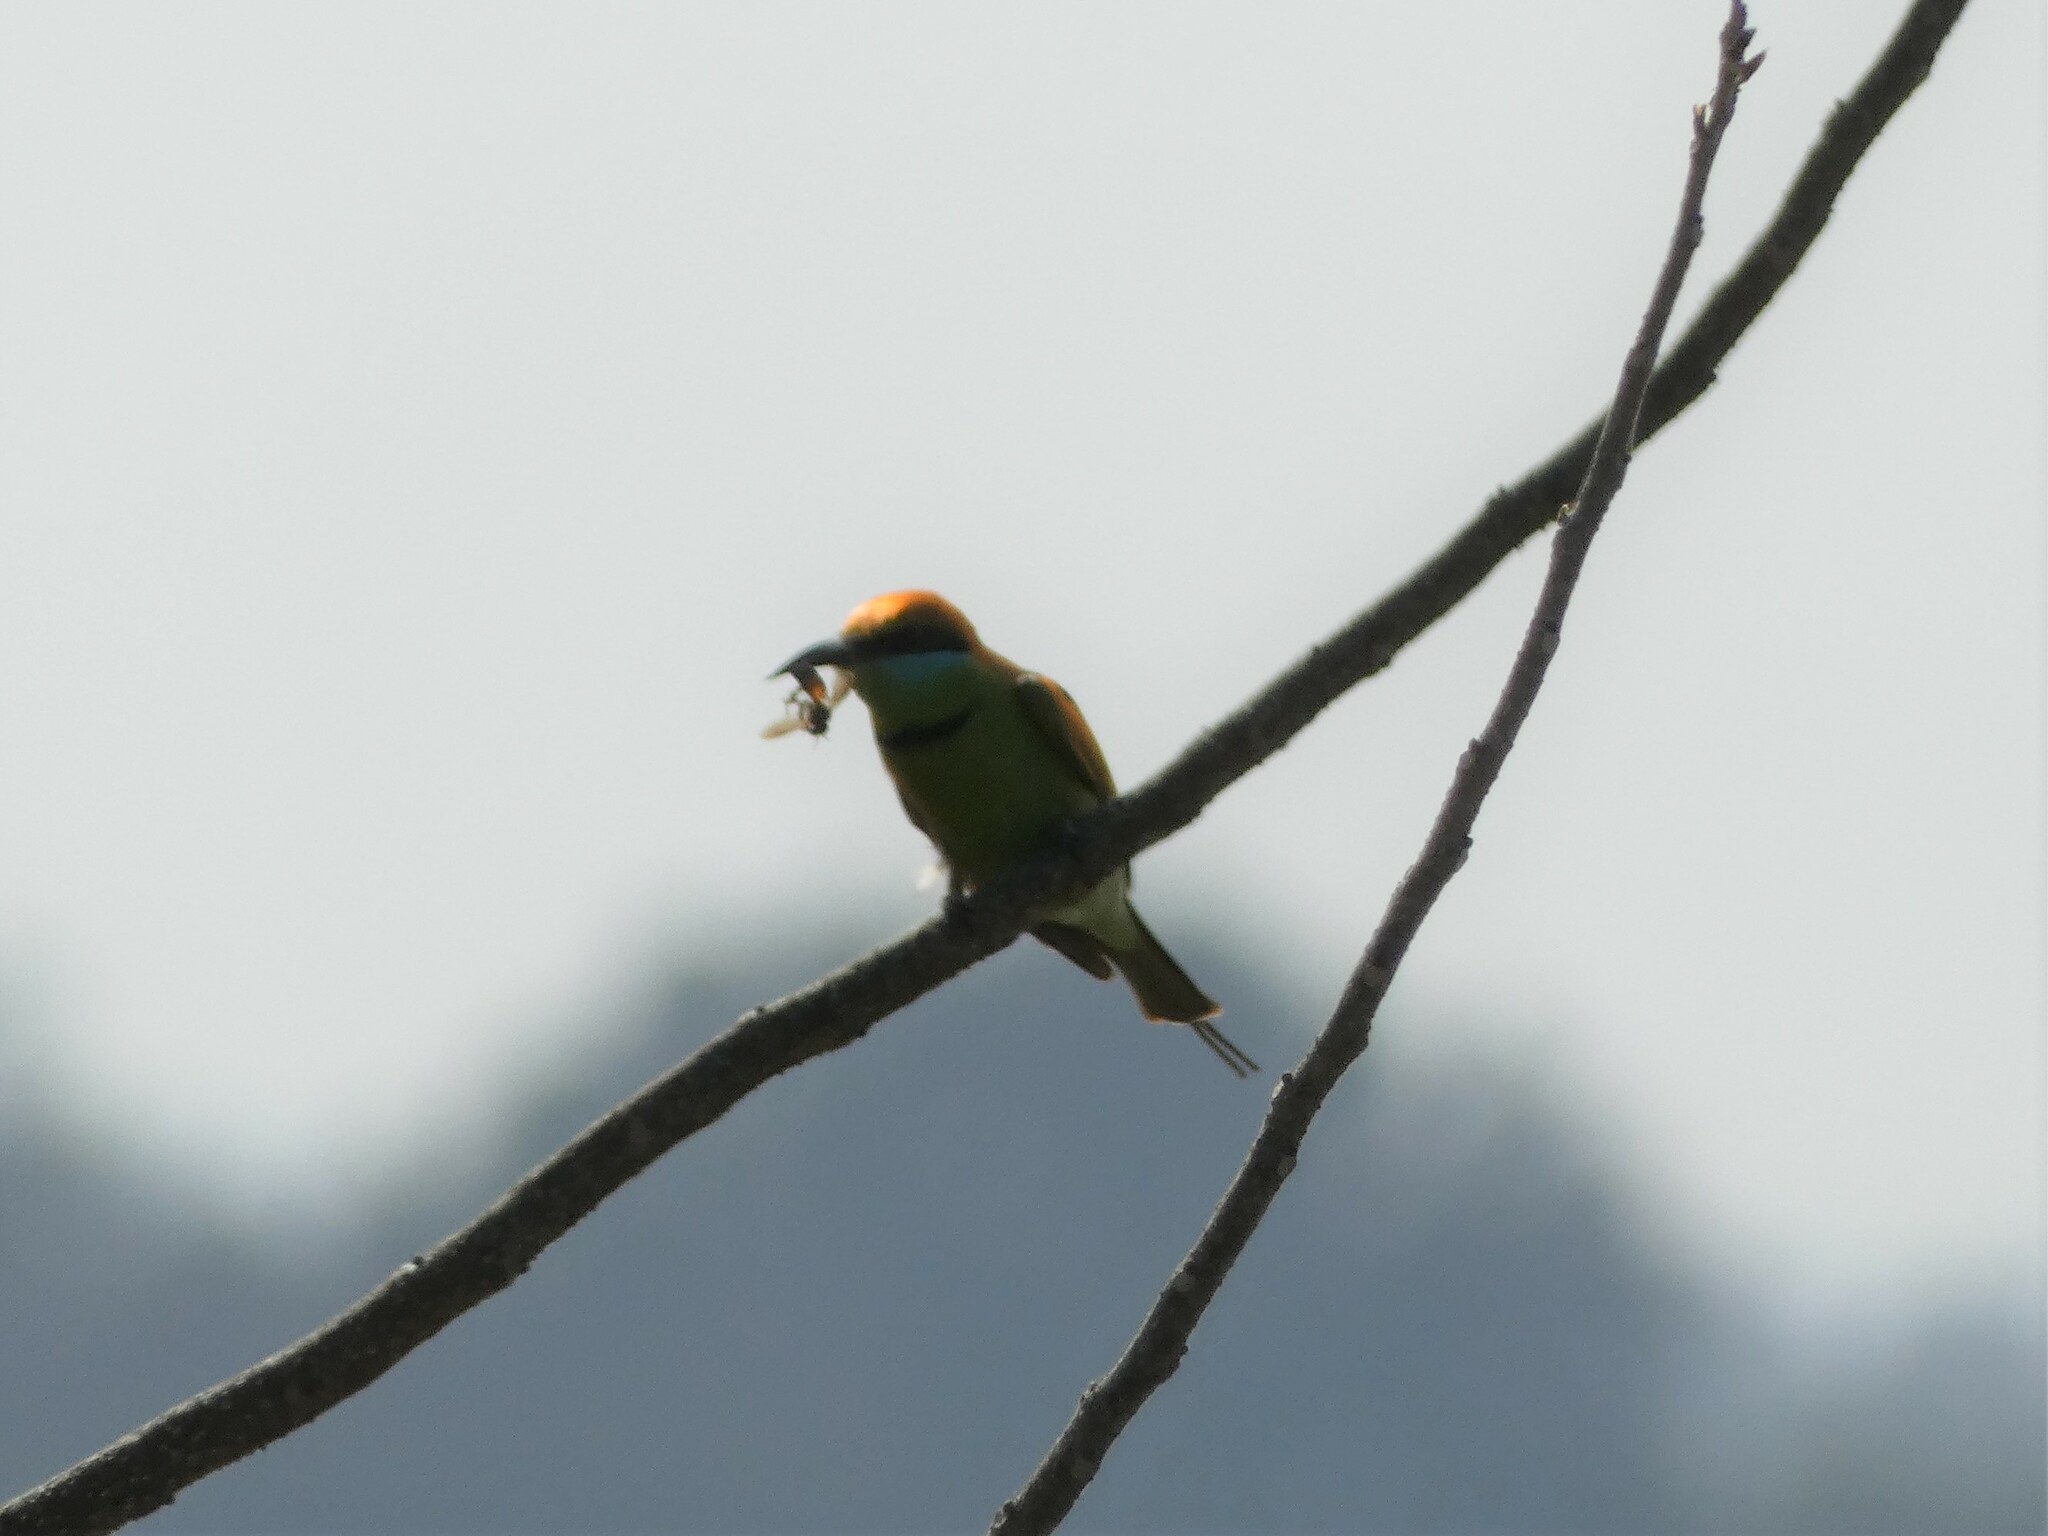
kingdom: Animalia
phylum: Arthropoda
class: Insecta
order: Hymenoptera
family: Apidae
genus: Apis
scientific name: Apis dorsata
